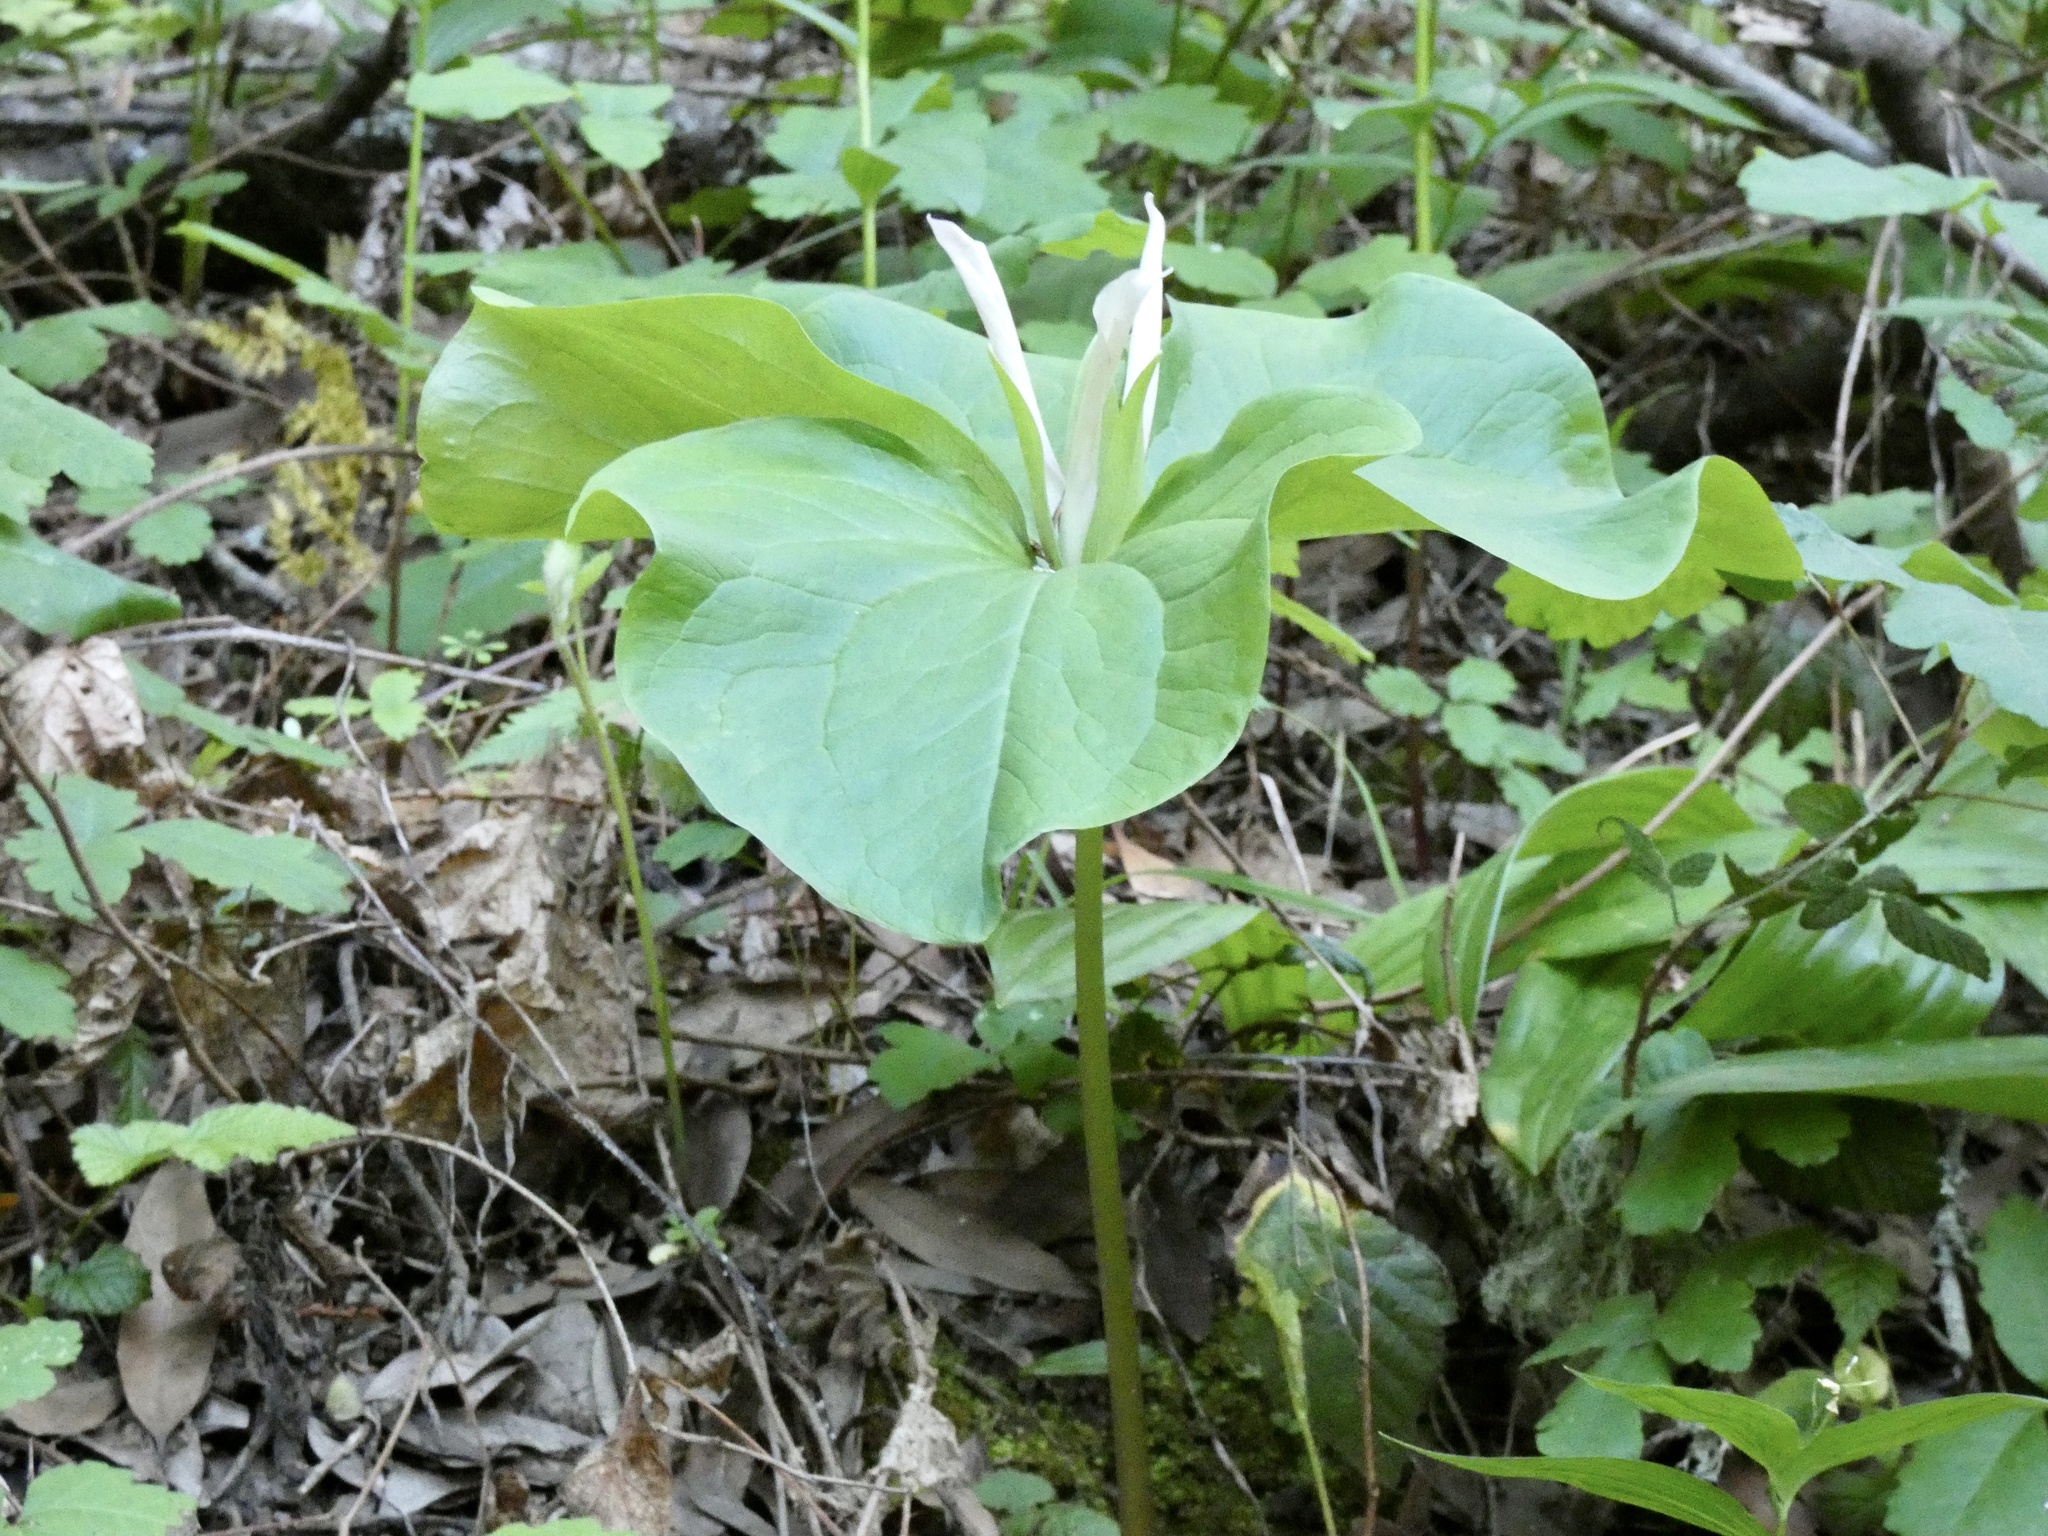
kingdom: Plantae
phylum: Tracheophyta
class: Liliopsida
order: Liliales
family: Melanthiaceae
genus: Trillium
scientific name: Trillium chloropetalum
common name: Giant trillium
